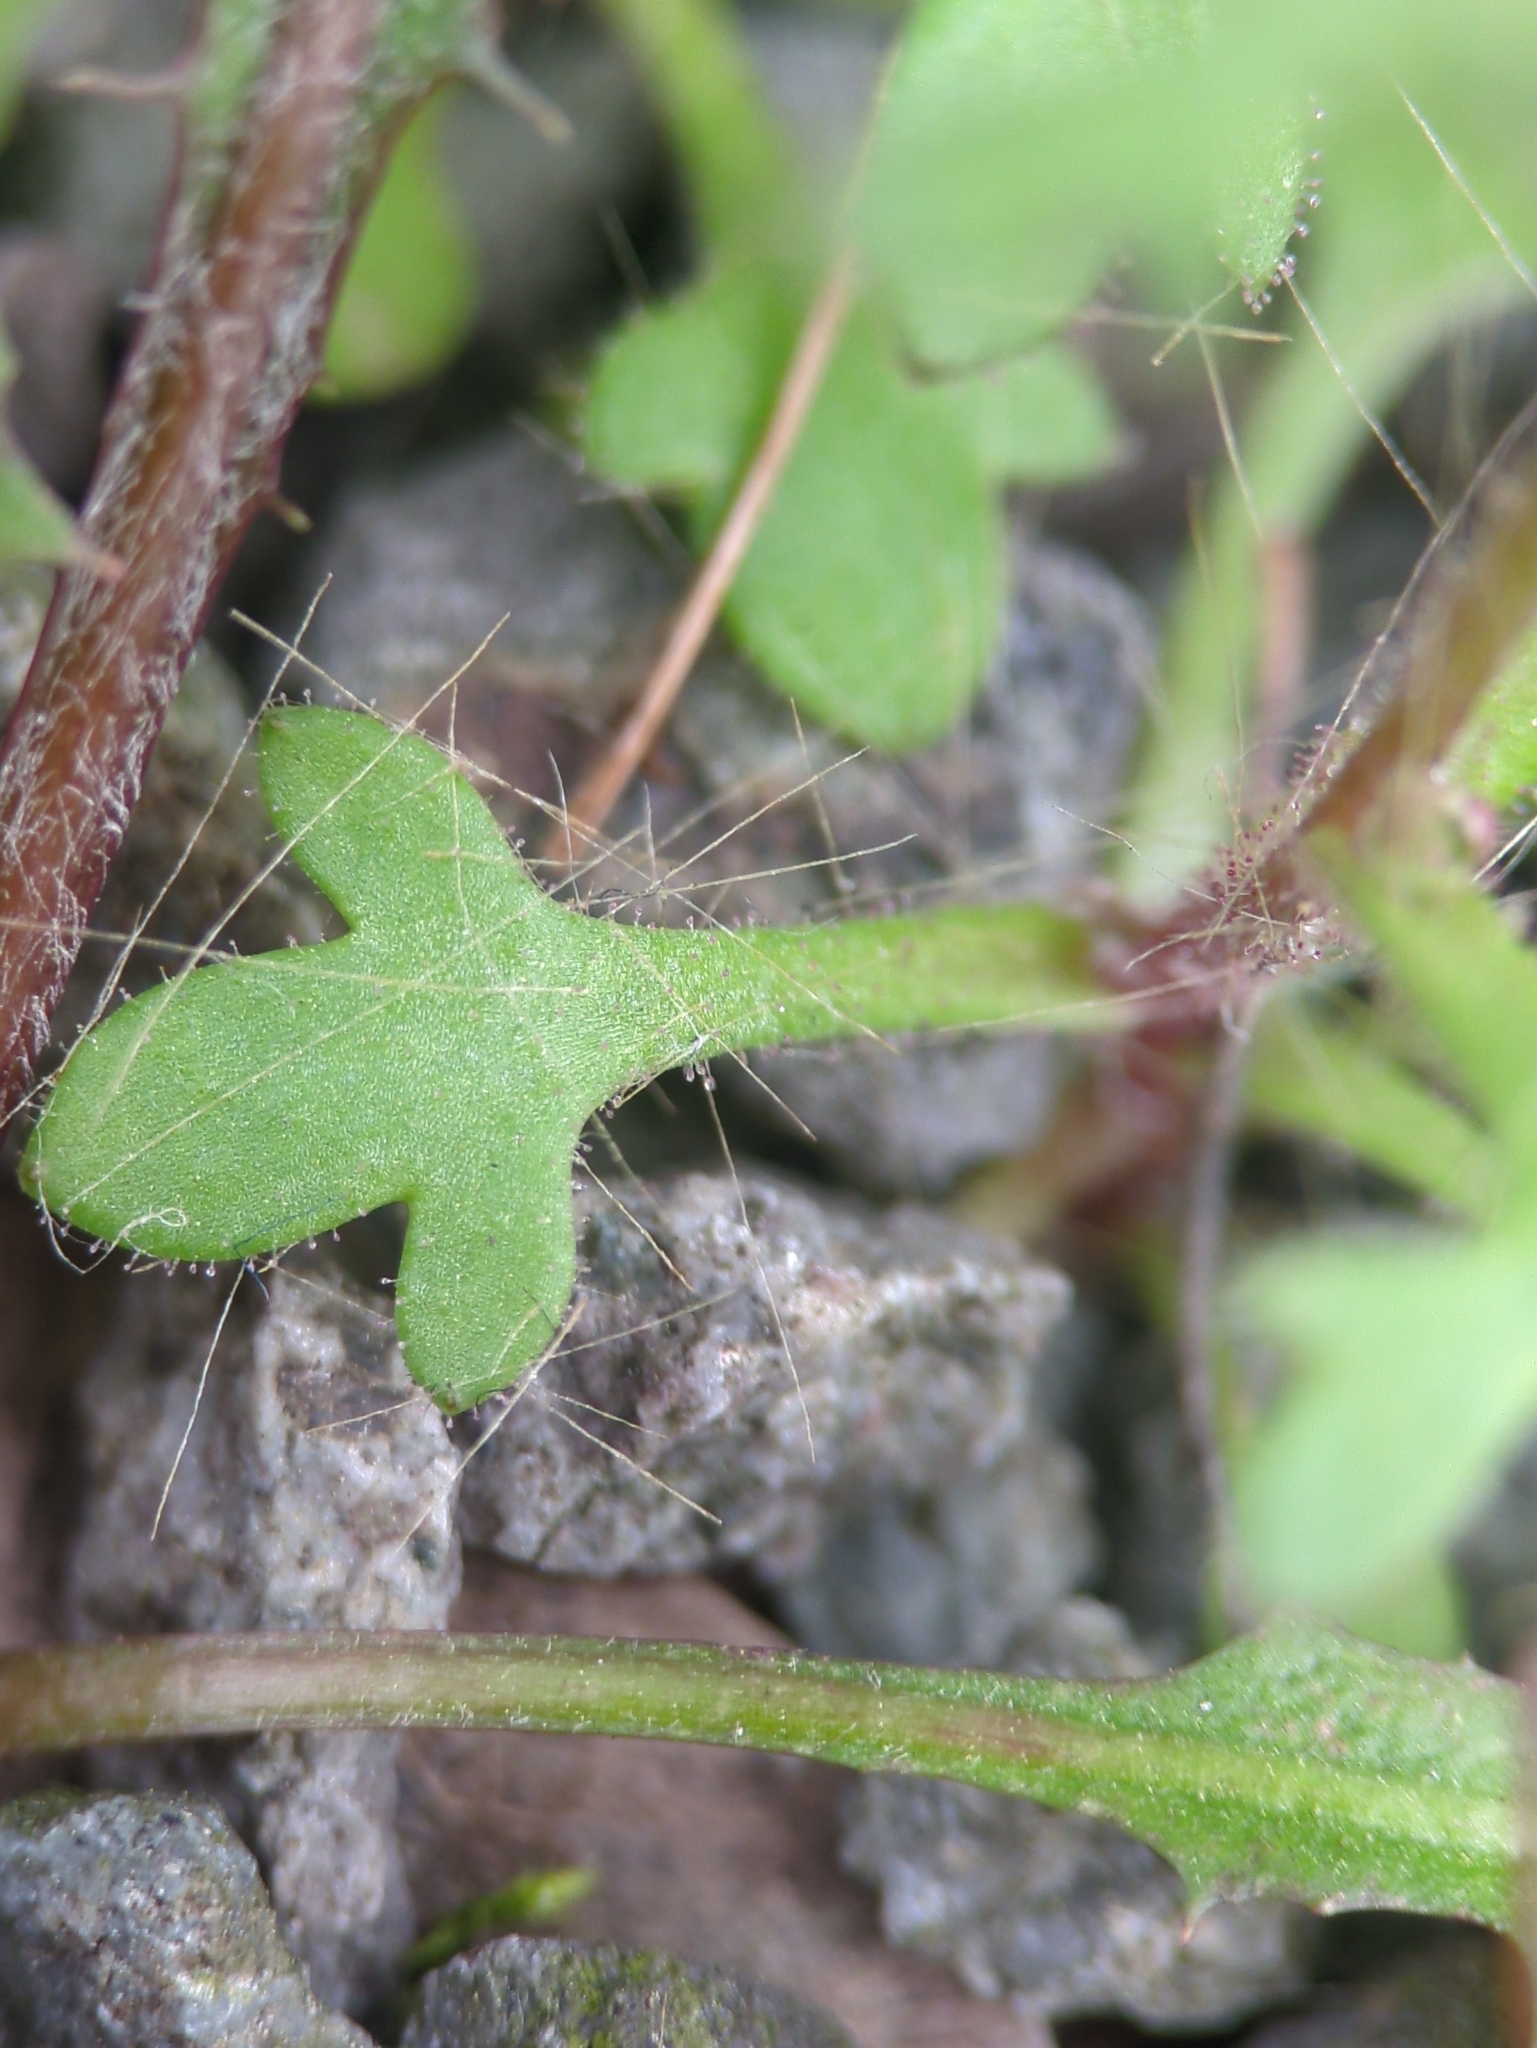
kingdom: Plantae
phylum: Tracheophyta
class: Magnoliopsida
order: Saxifragales
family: Saxifragaceae
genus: Saxifraga
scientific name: Saxifraga tridactylites
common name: Rue-leaved saxifrage
